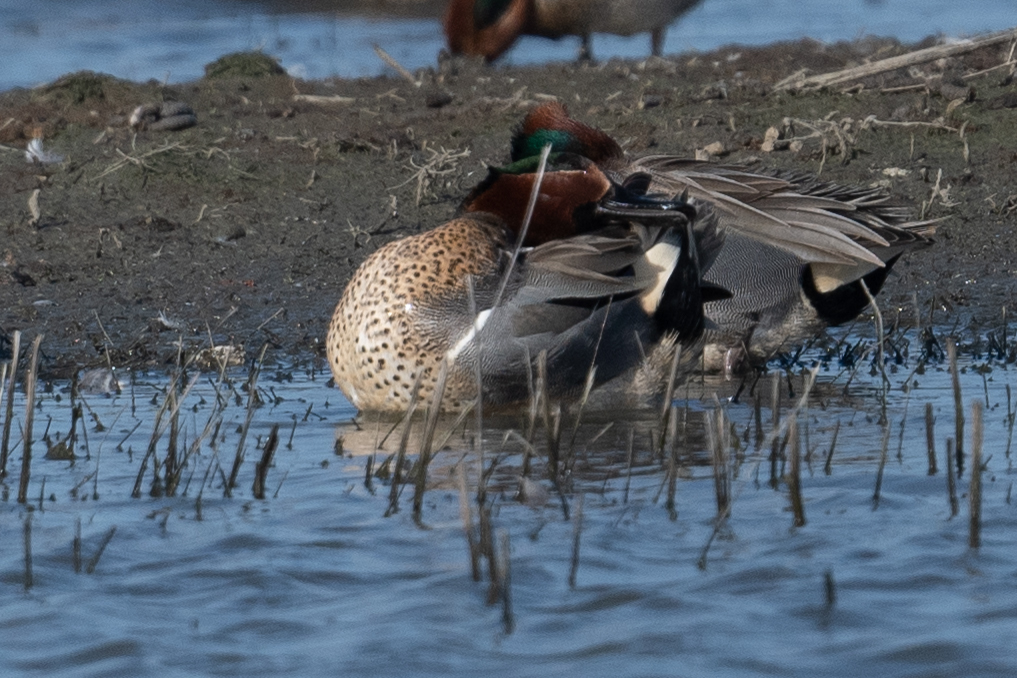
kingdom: Animalia
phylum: Chordata
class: Aves
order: Anseriformes
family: Anatidae
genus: Anas
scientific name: Anas crecca
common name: Eurasian teal
